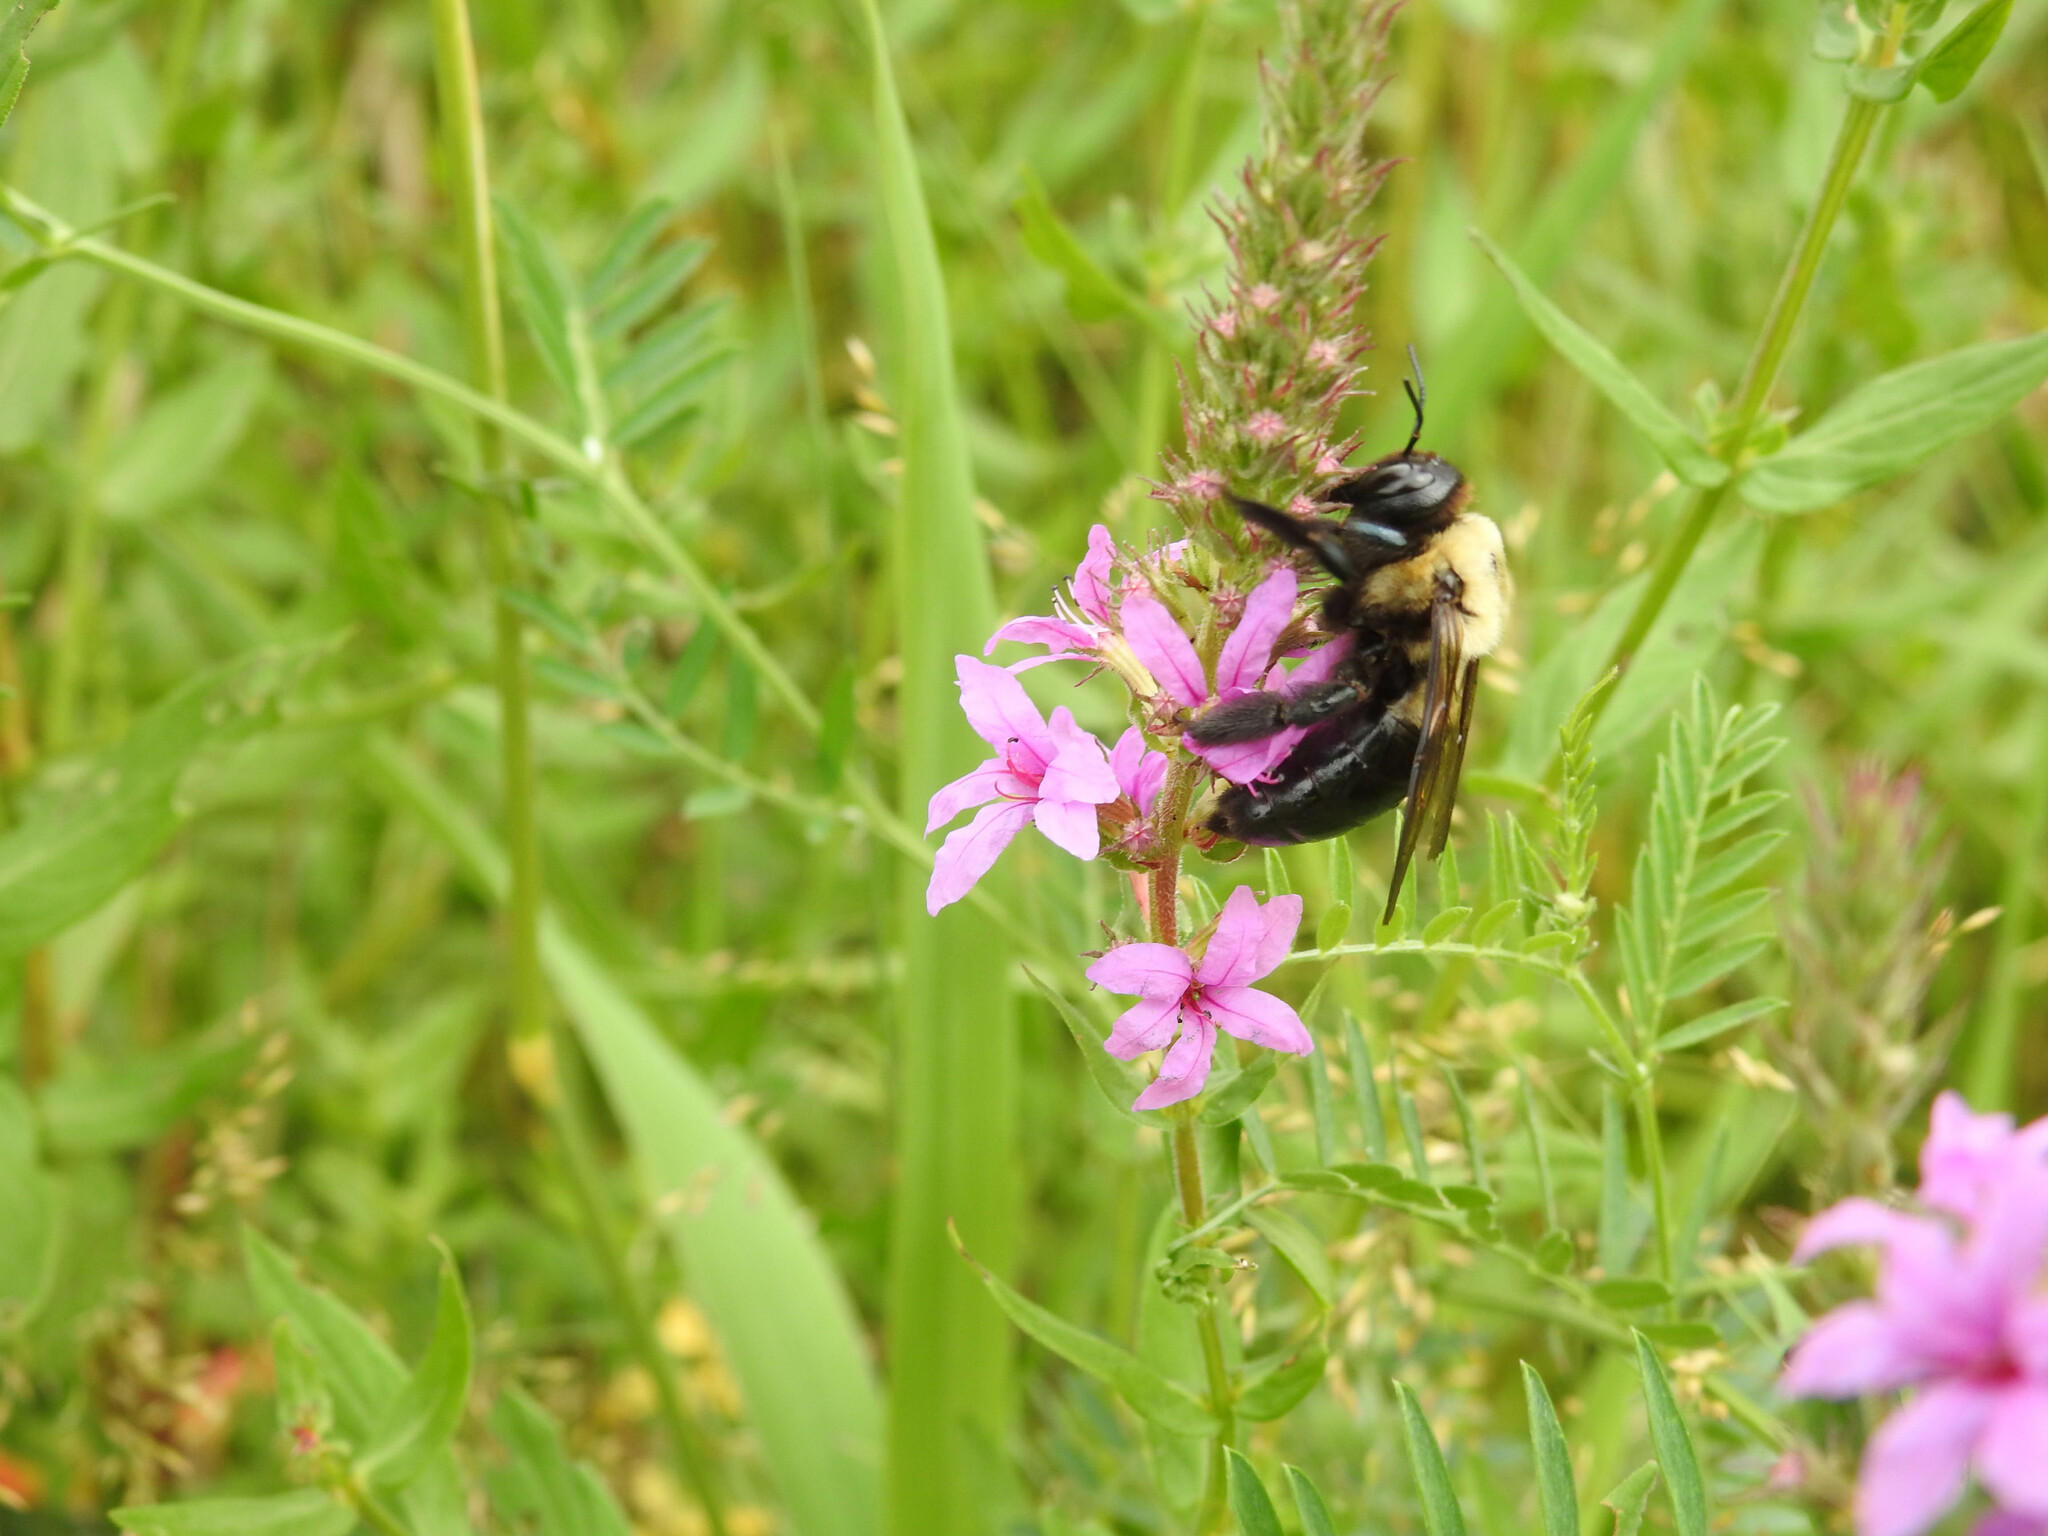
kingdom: Animalia
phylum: Arthropoda
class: Insecta
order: Hymenoptera
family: Apidae
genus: Xylocopa
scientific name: Xylocopa virginica
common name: Carpenter bee
